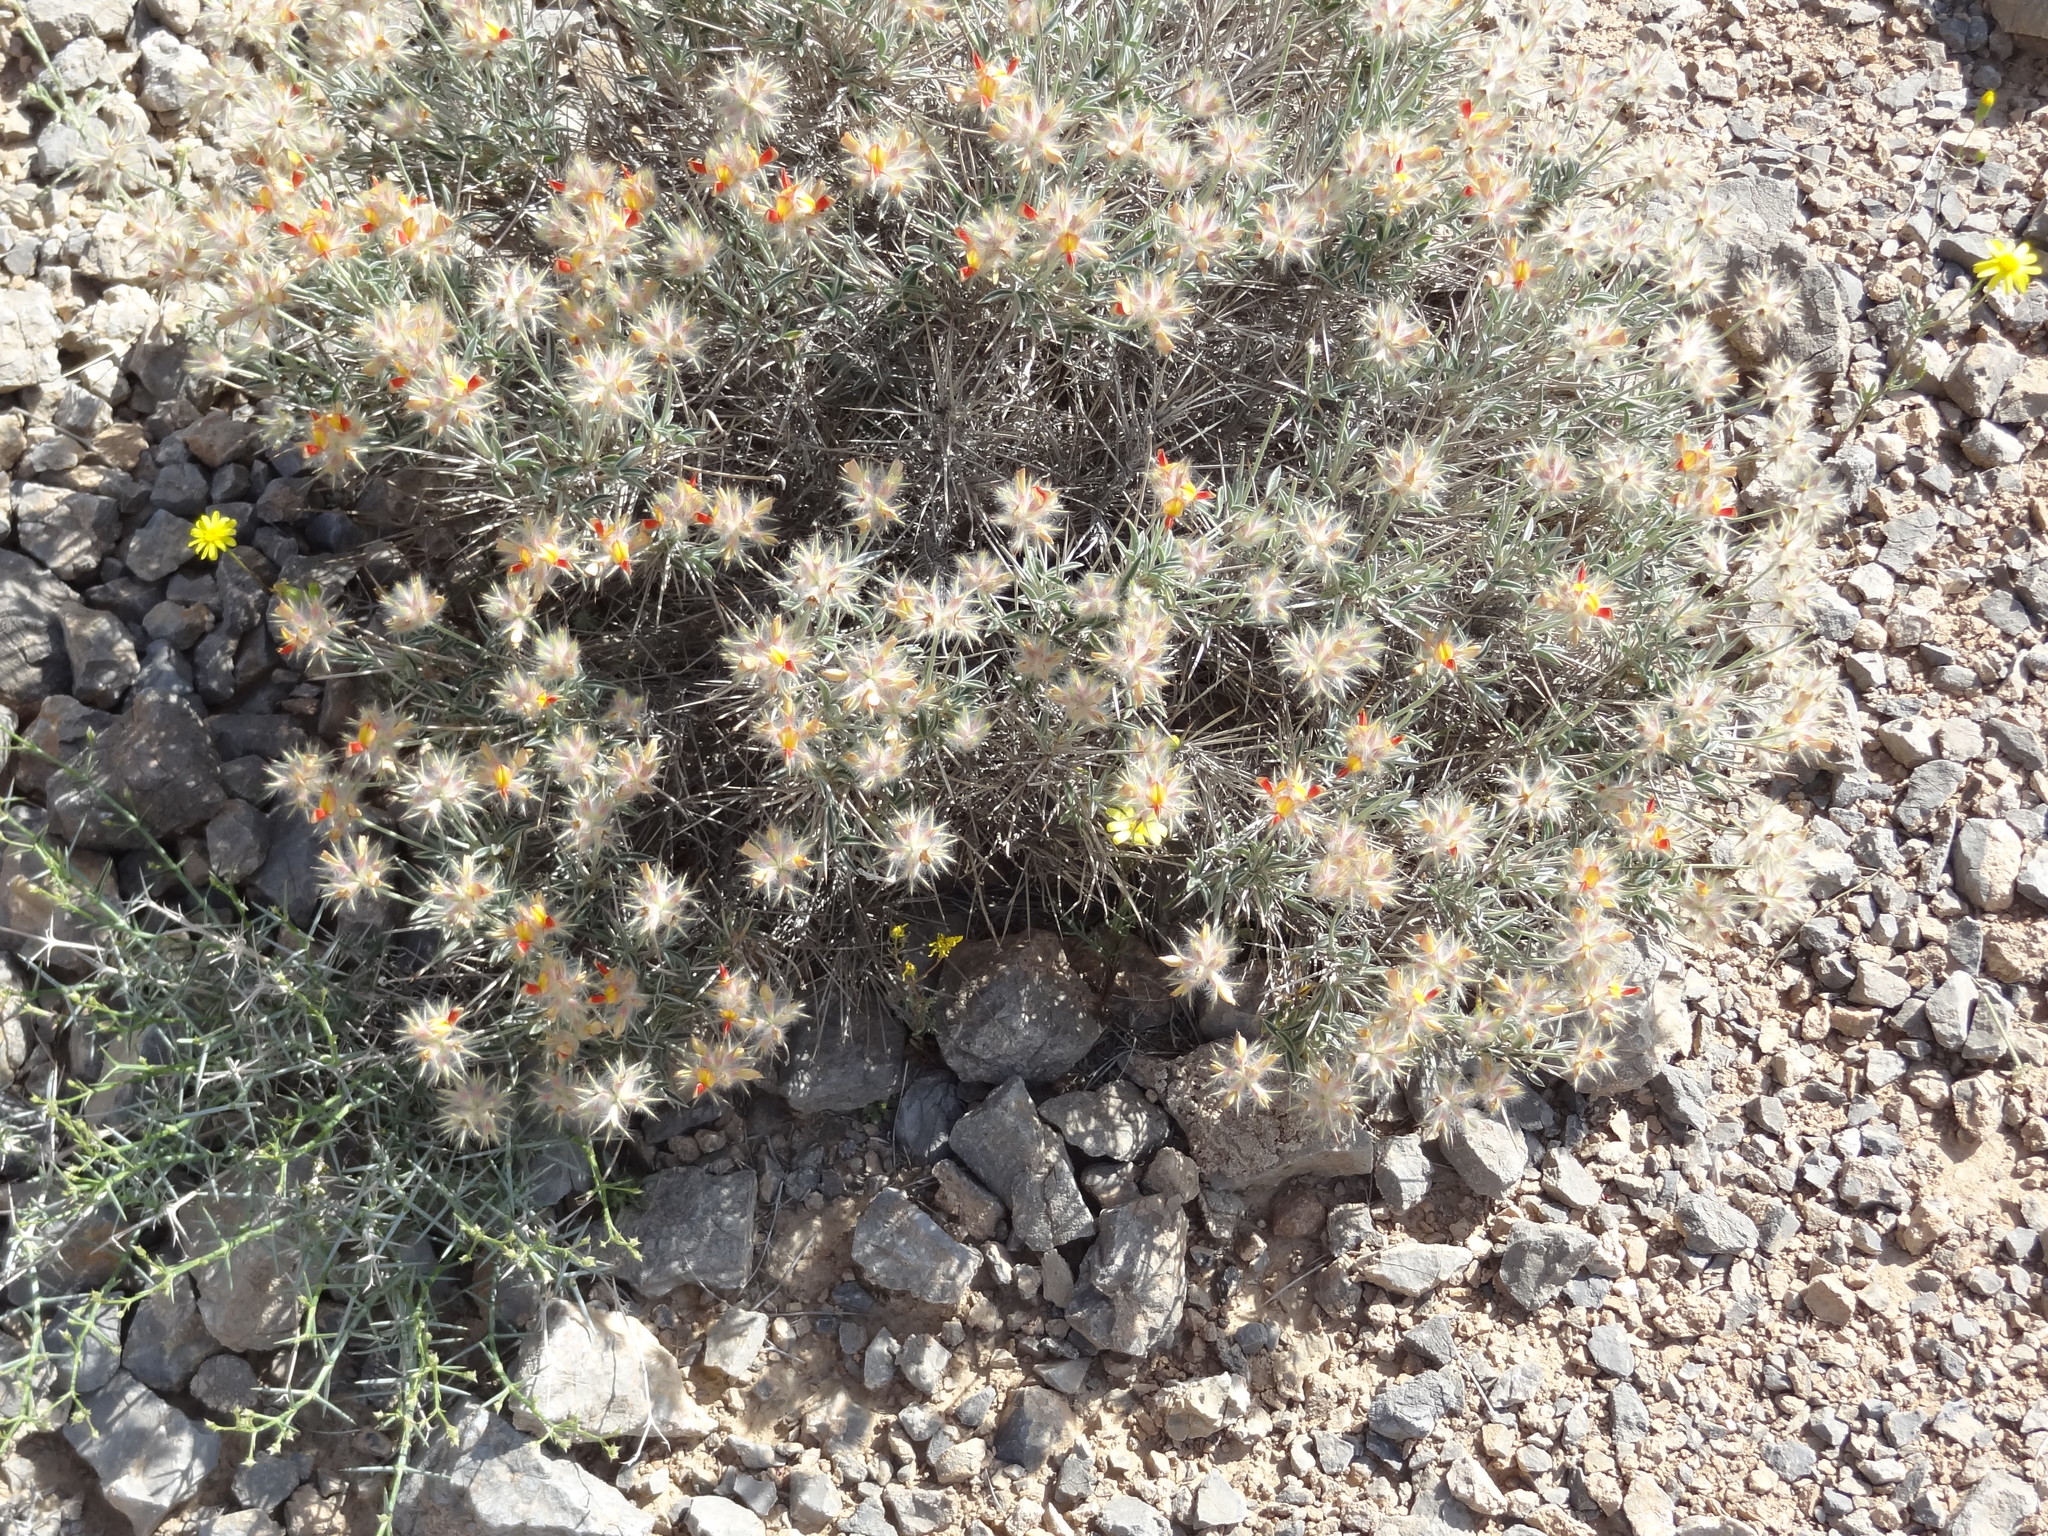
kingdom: Plantae
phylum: Tracheophyta
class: Magnoliopsida
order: Fabales
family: Fabaceae
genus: Ebenus
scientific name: Ebenus stellata
